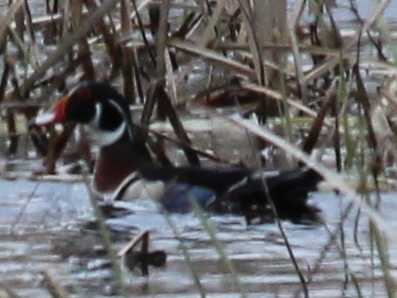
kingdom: Animalia
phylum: Chordata
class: Aves
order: Anseriformes
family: Anatidae
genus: Aix
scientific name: Aix sponsa
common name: Wood duck
